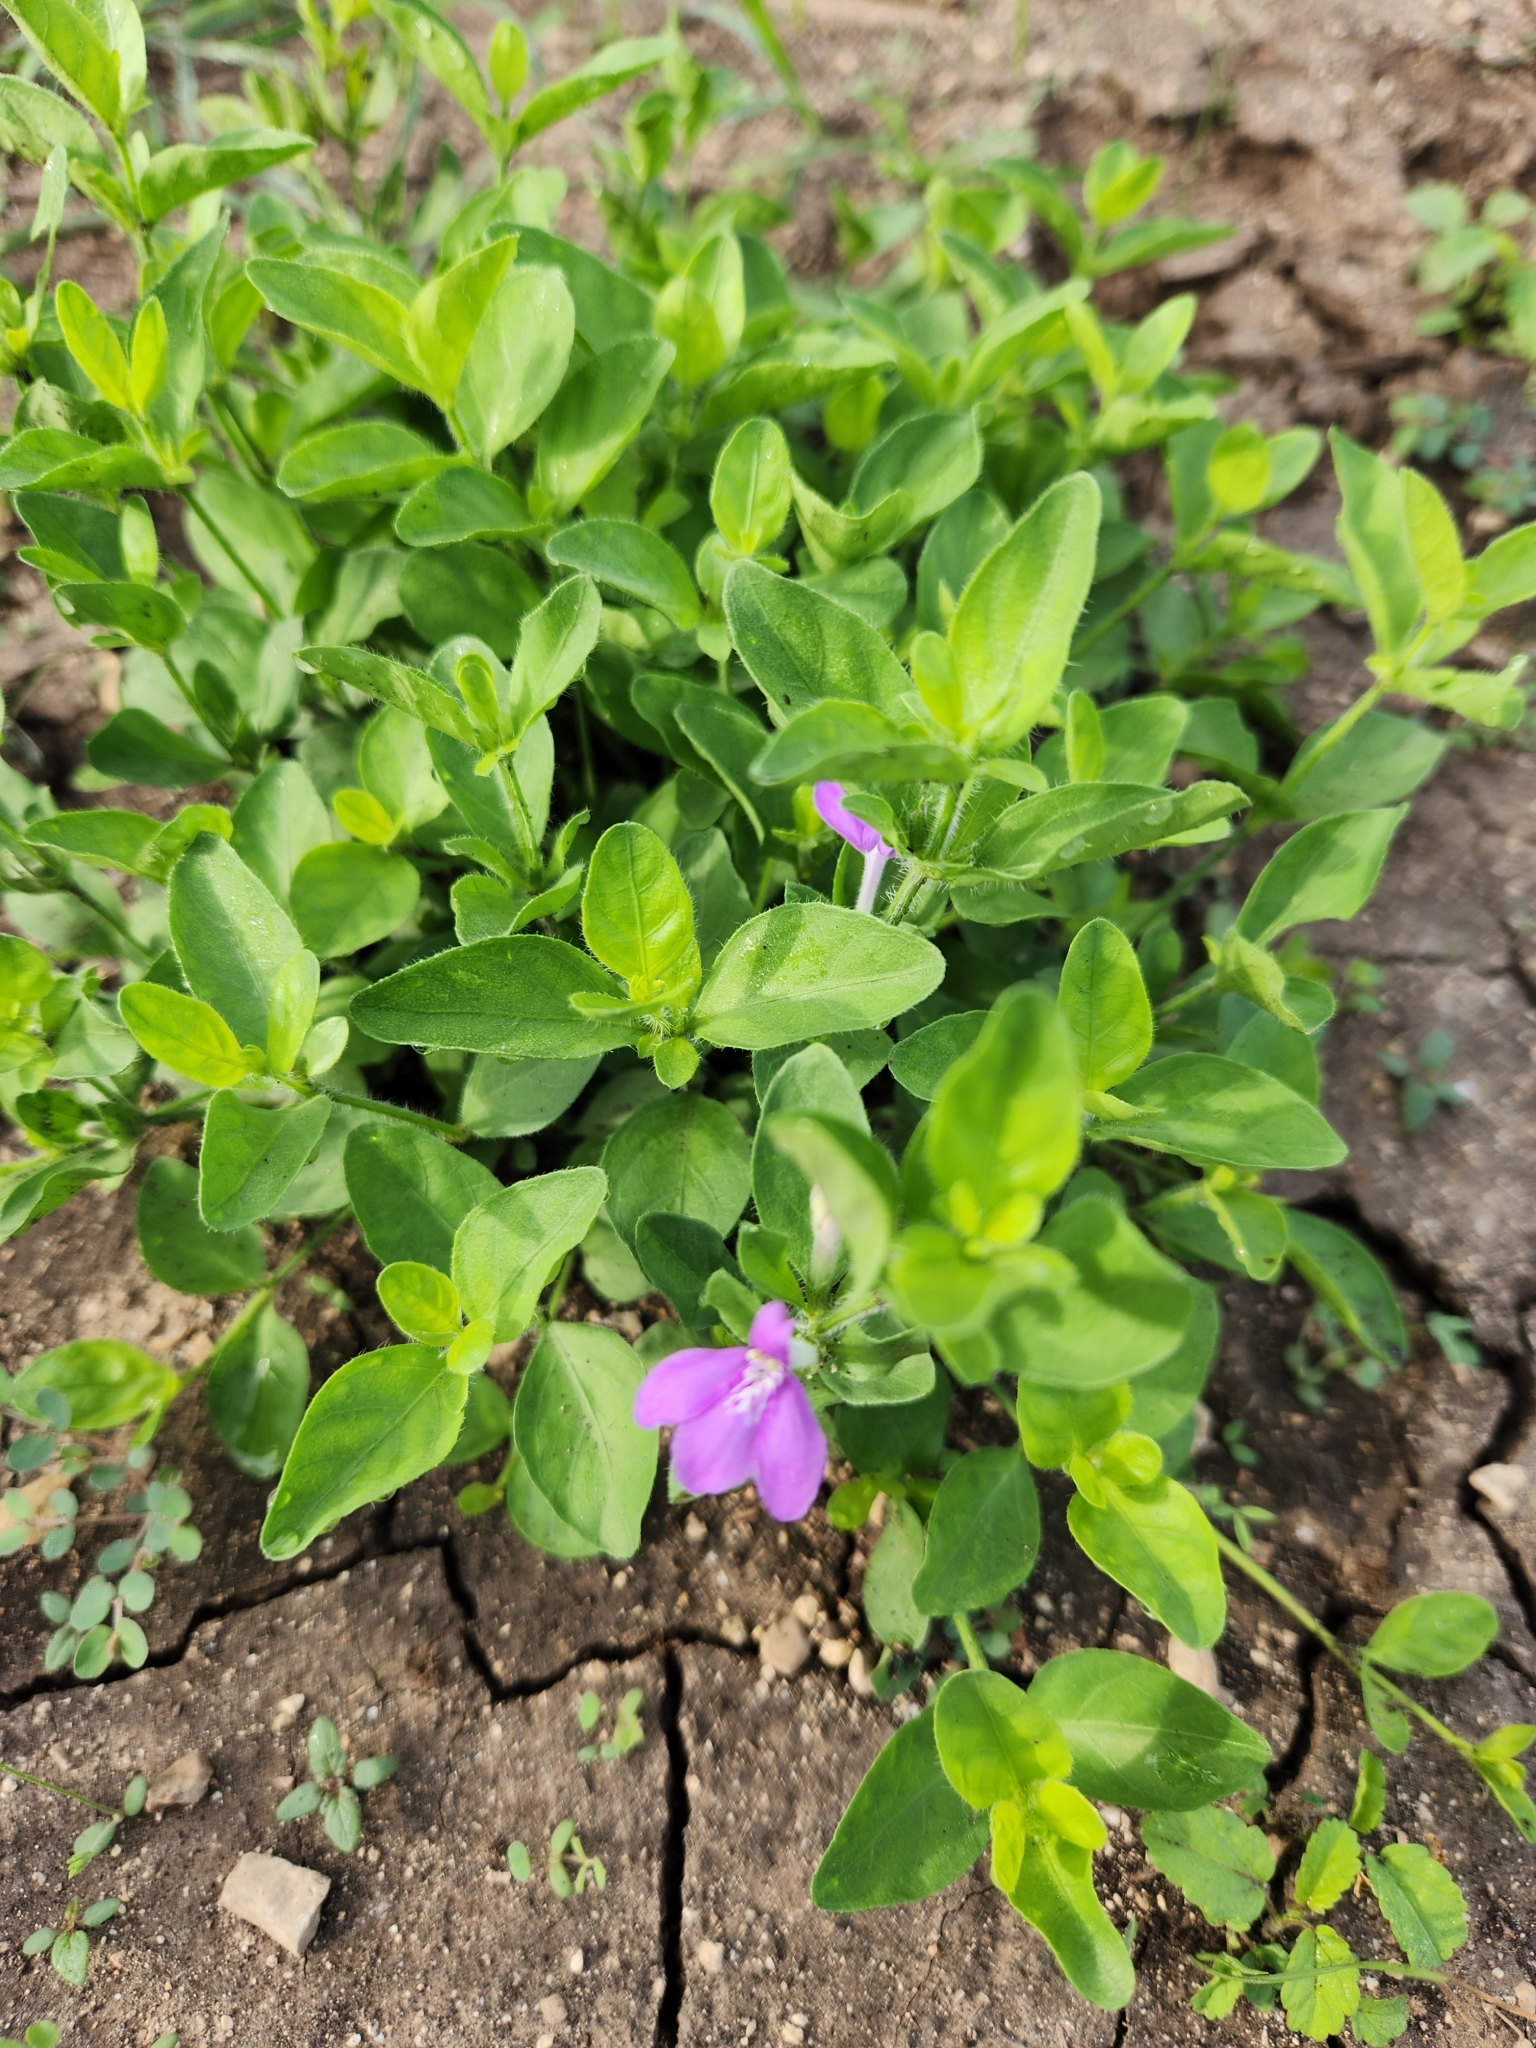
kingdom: Plantae
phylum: Tracheophyta
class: Magnoliopsida
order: Lamiales
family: Acanthaceae
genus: Justicia
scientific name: Justicia pilosella
